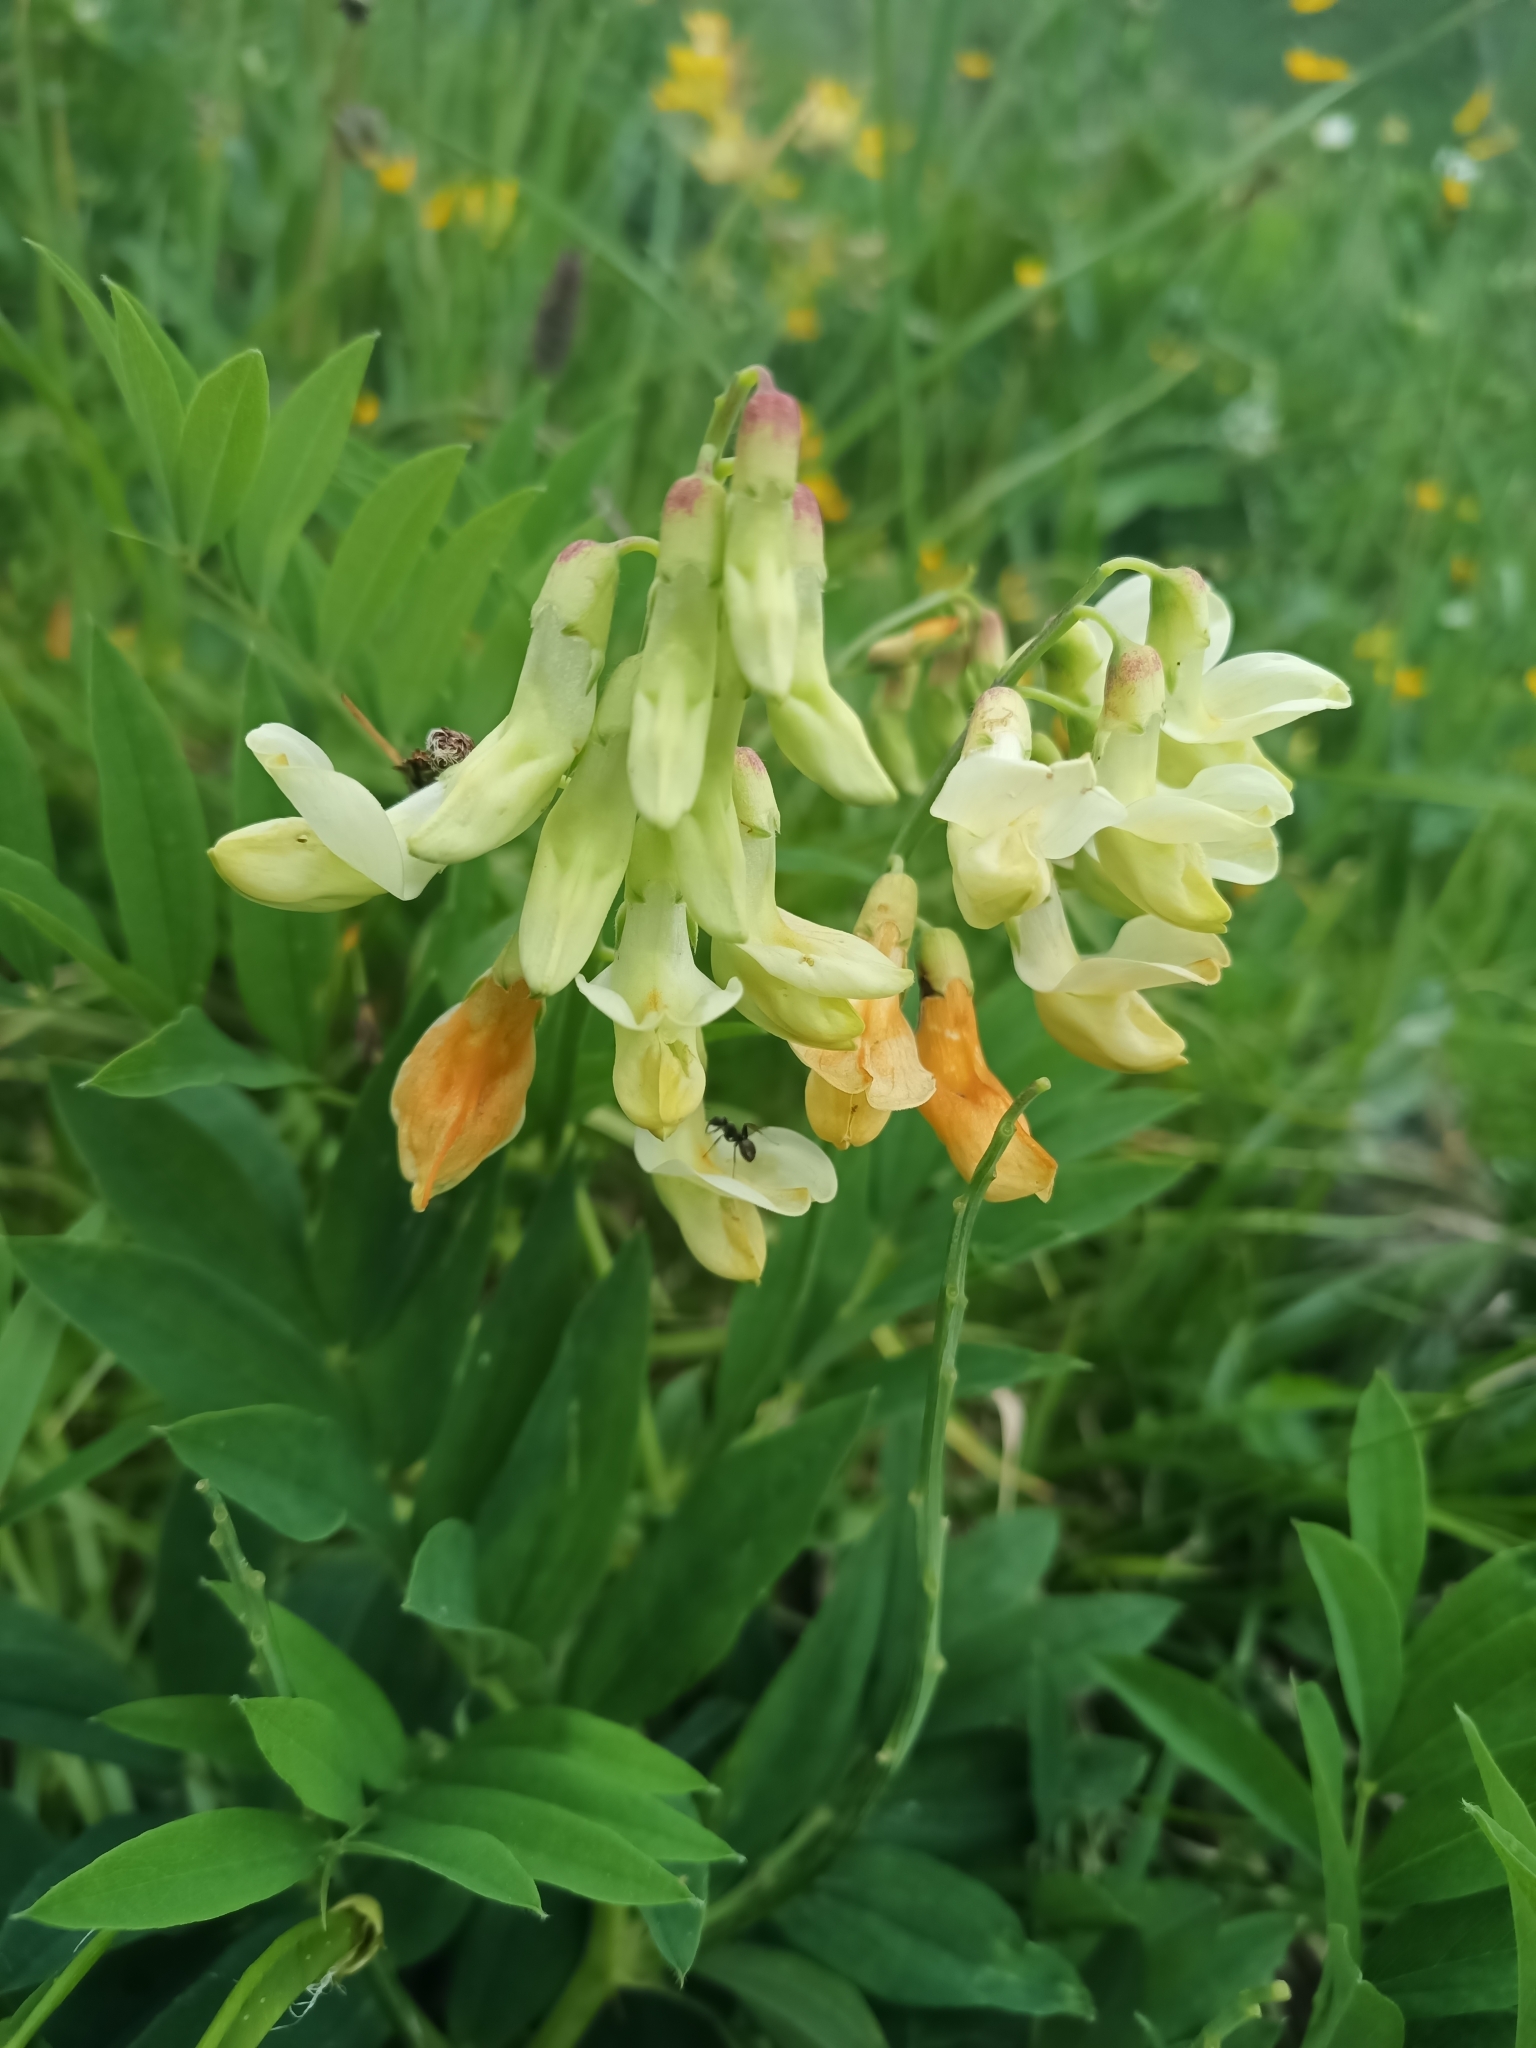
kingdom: Plantae
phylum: Tracheophyta
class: Magnoliopsida
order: Fabales
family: Fabaceae
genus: Lathyrus
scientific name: Lathyrus laevigatus
